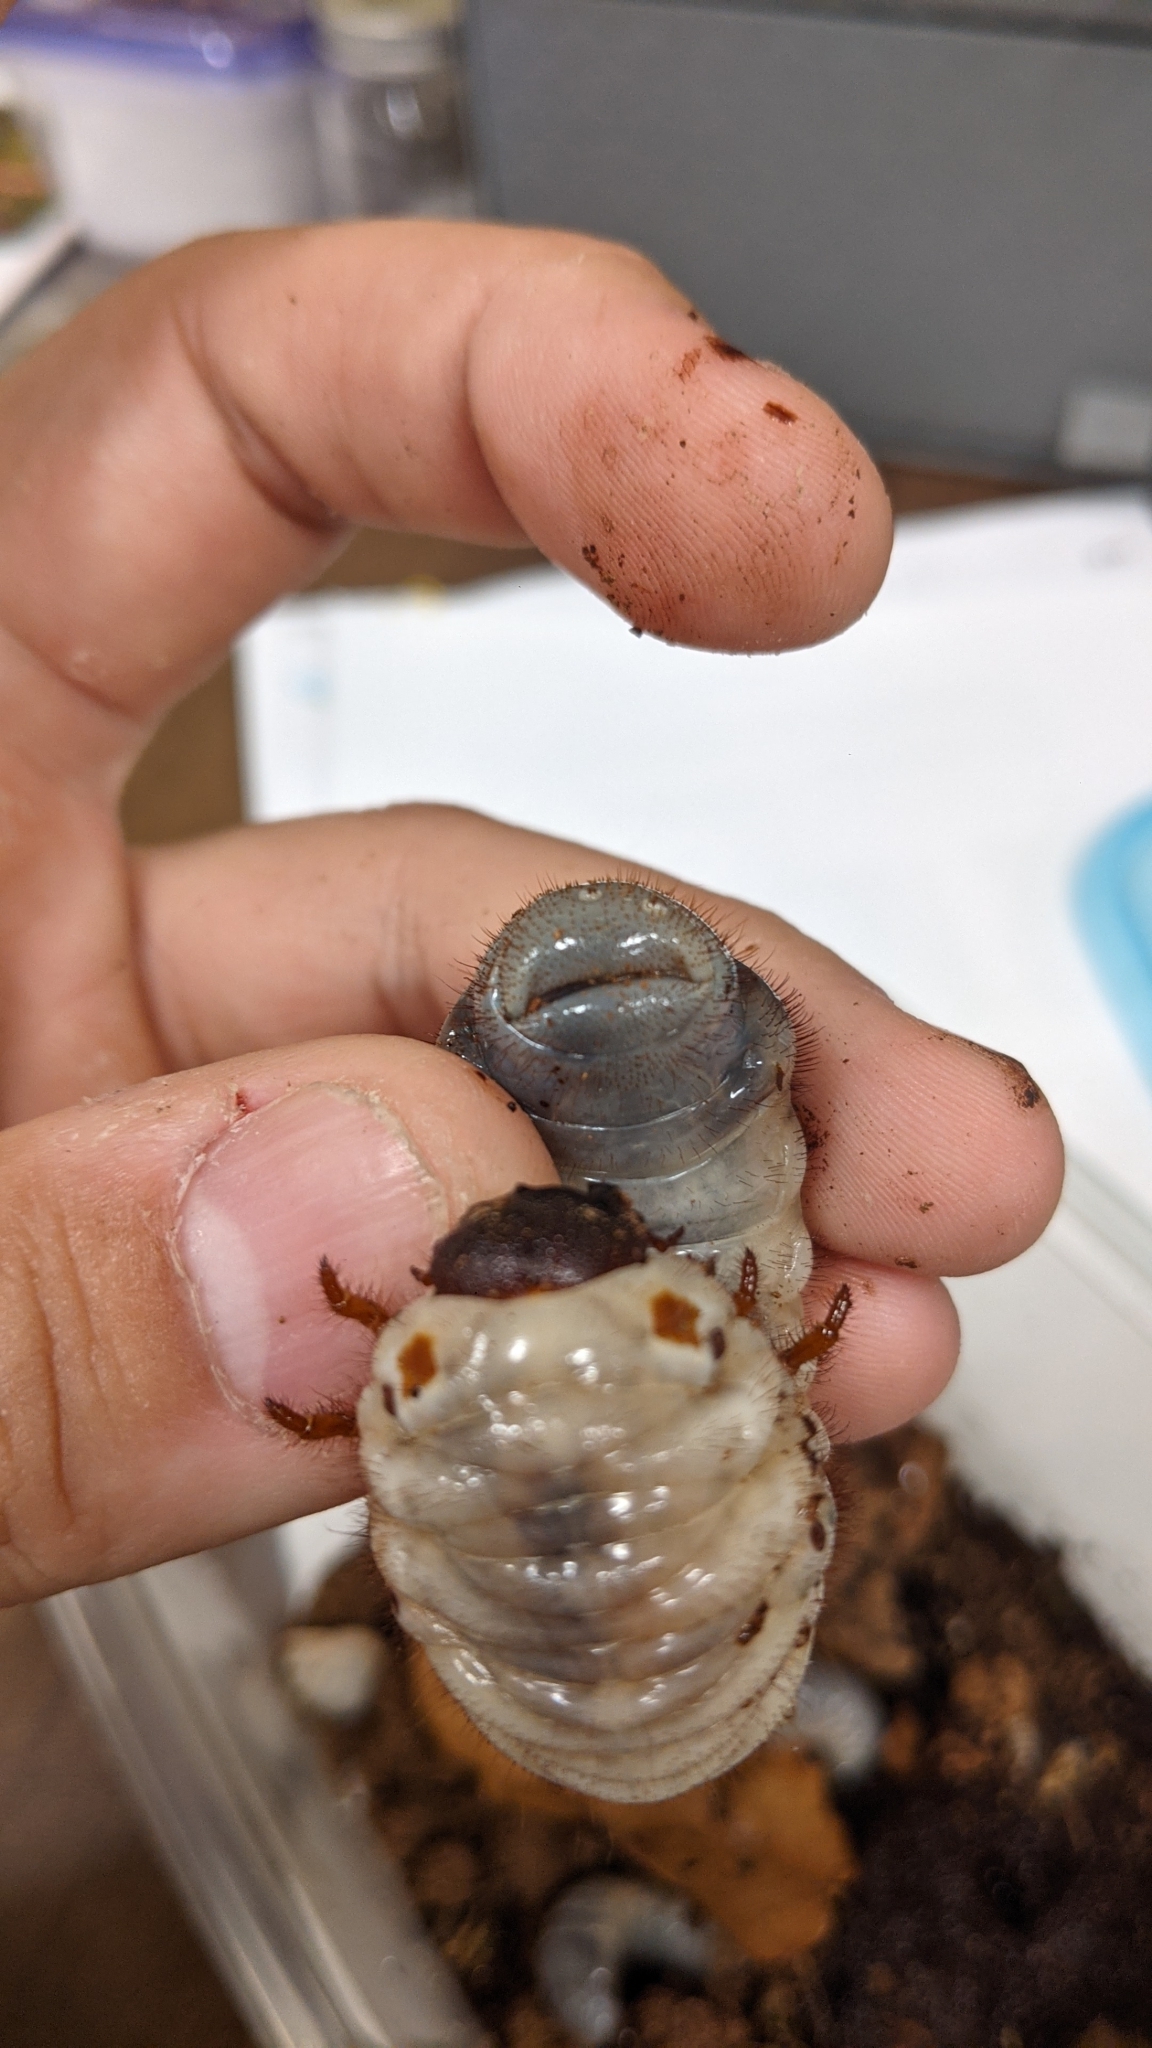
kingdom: Animalia
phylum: Arthropoda
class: Insecta
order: Coleoptera
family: Scarabaeidae
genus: Dynastes
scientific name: Dynastes tityus
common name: Eastern hercules beetle
